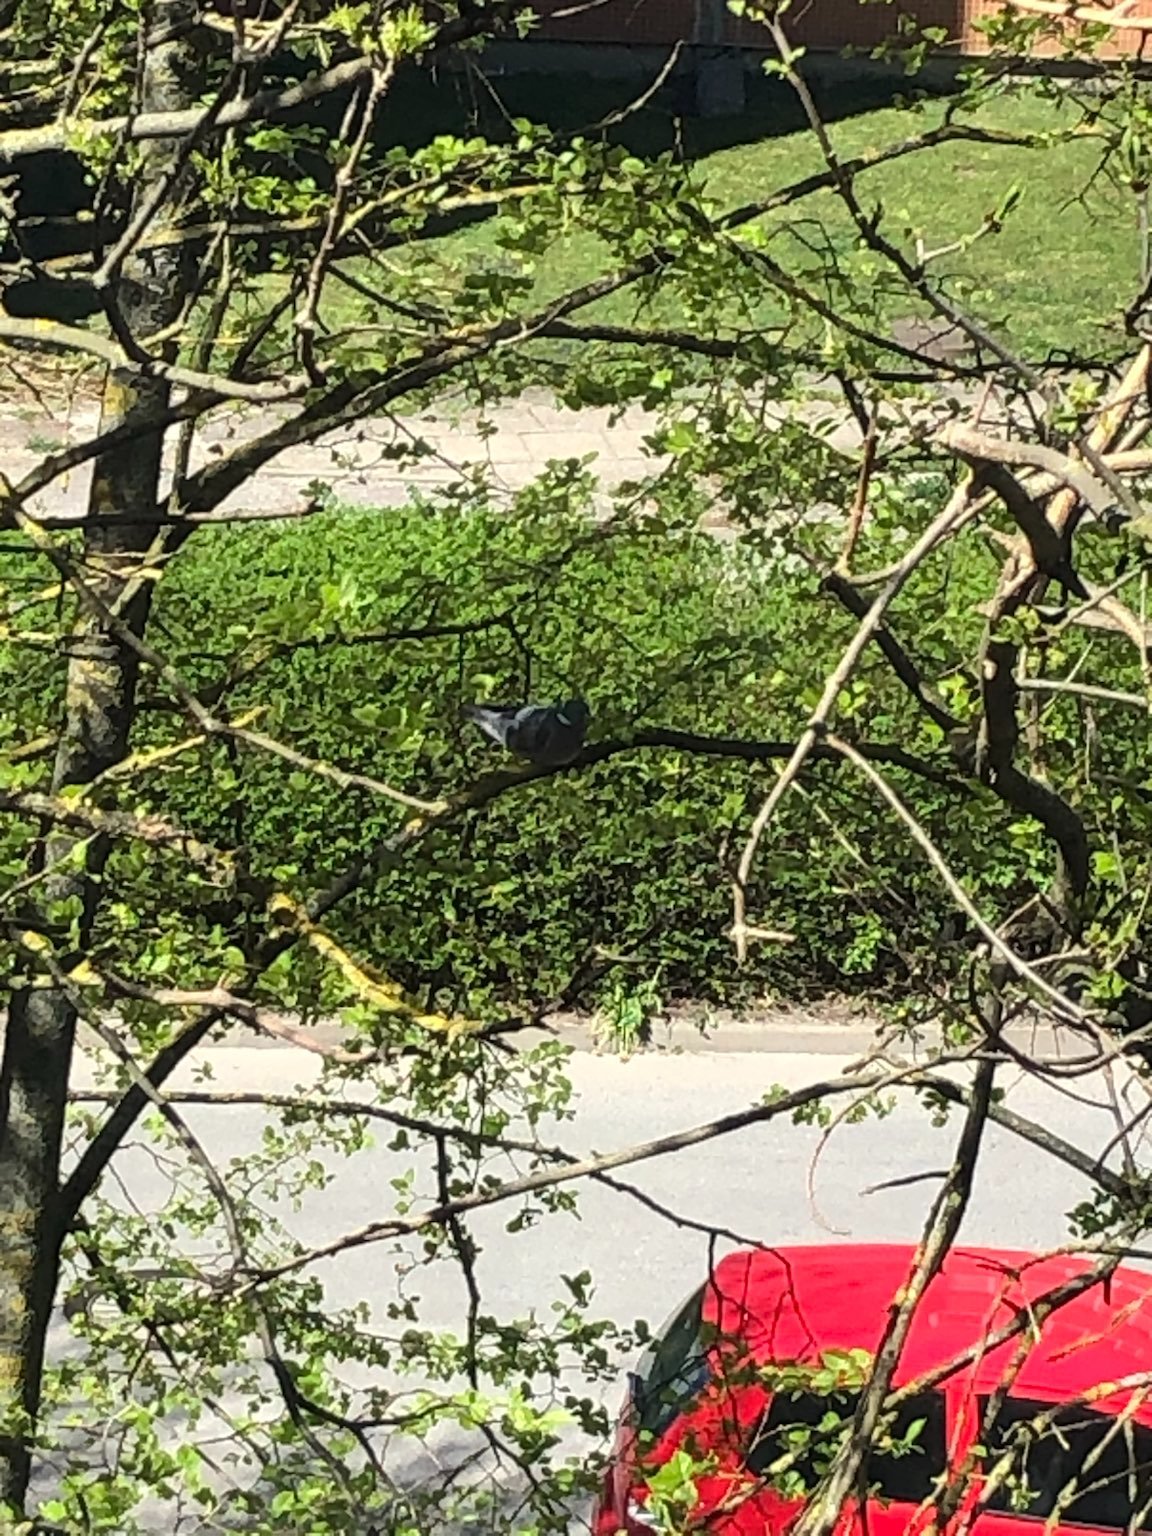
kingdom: Animalia
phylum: Chordata
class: Aves
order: Columbiformes
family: Columbidae
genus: Columba
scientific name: Columba palumbus
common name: Common wood pigeon
